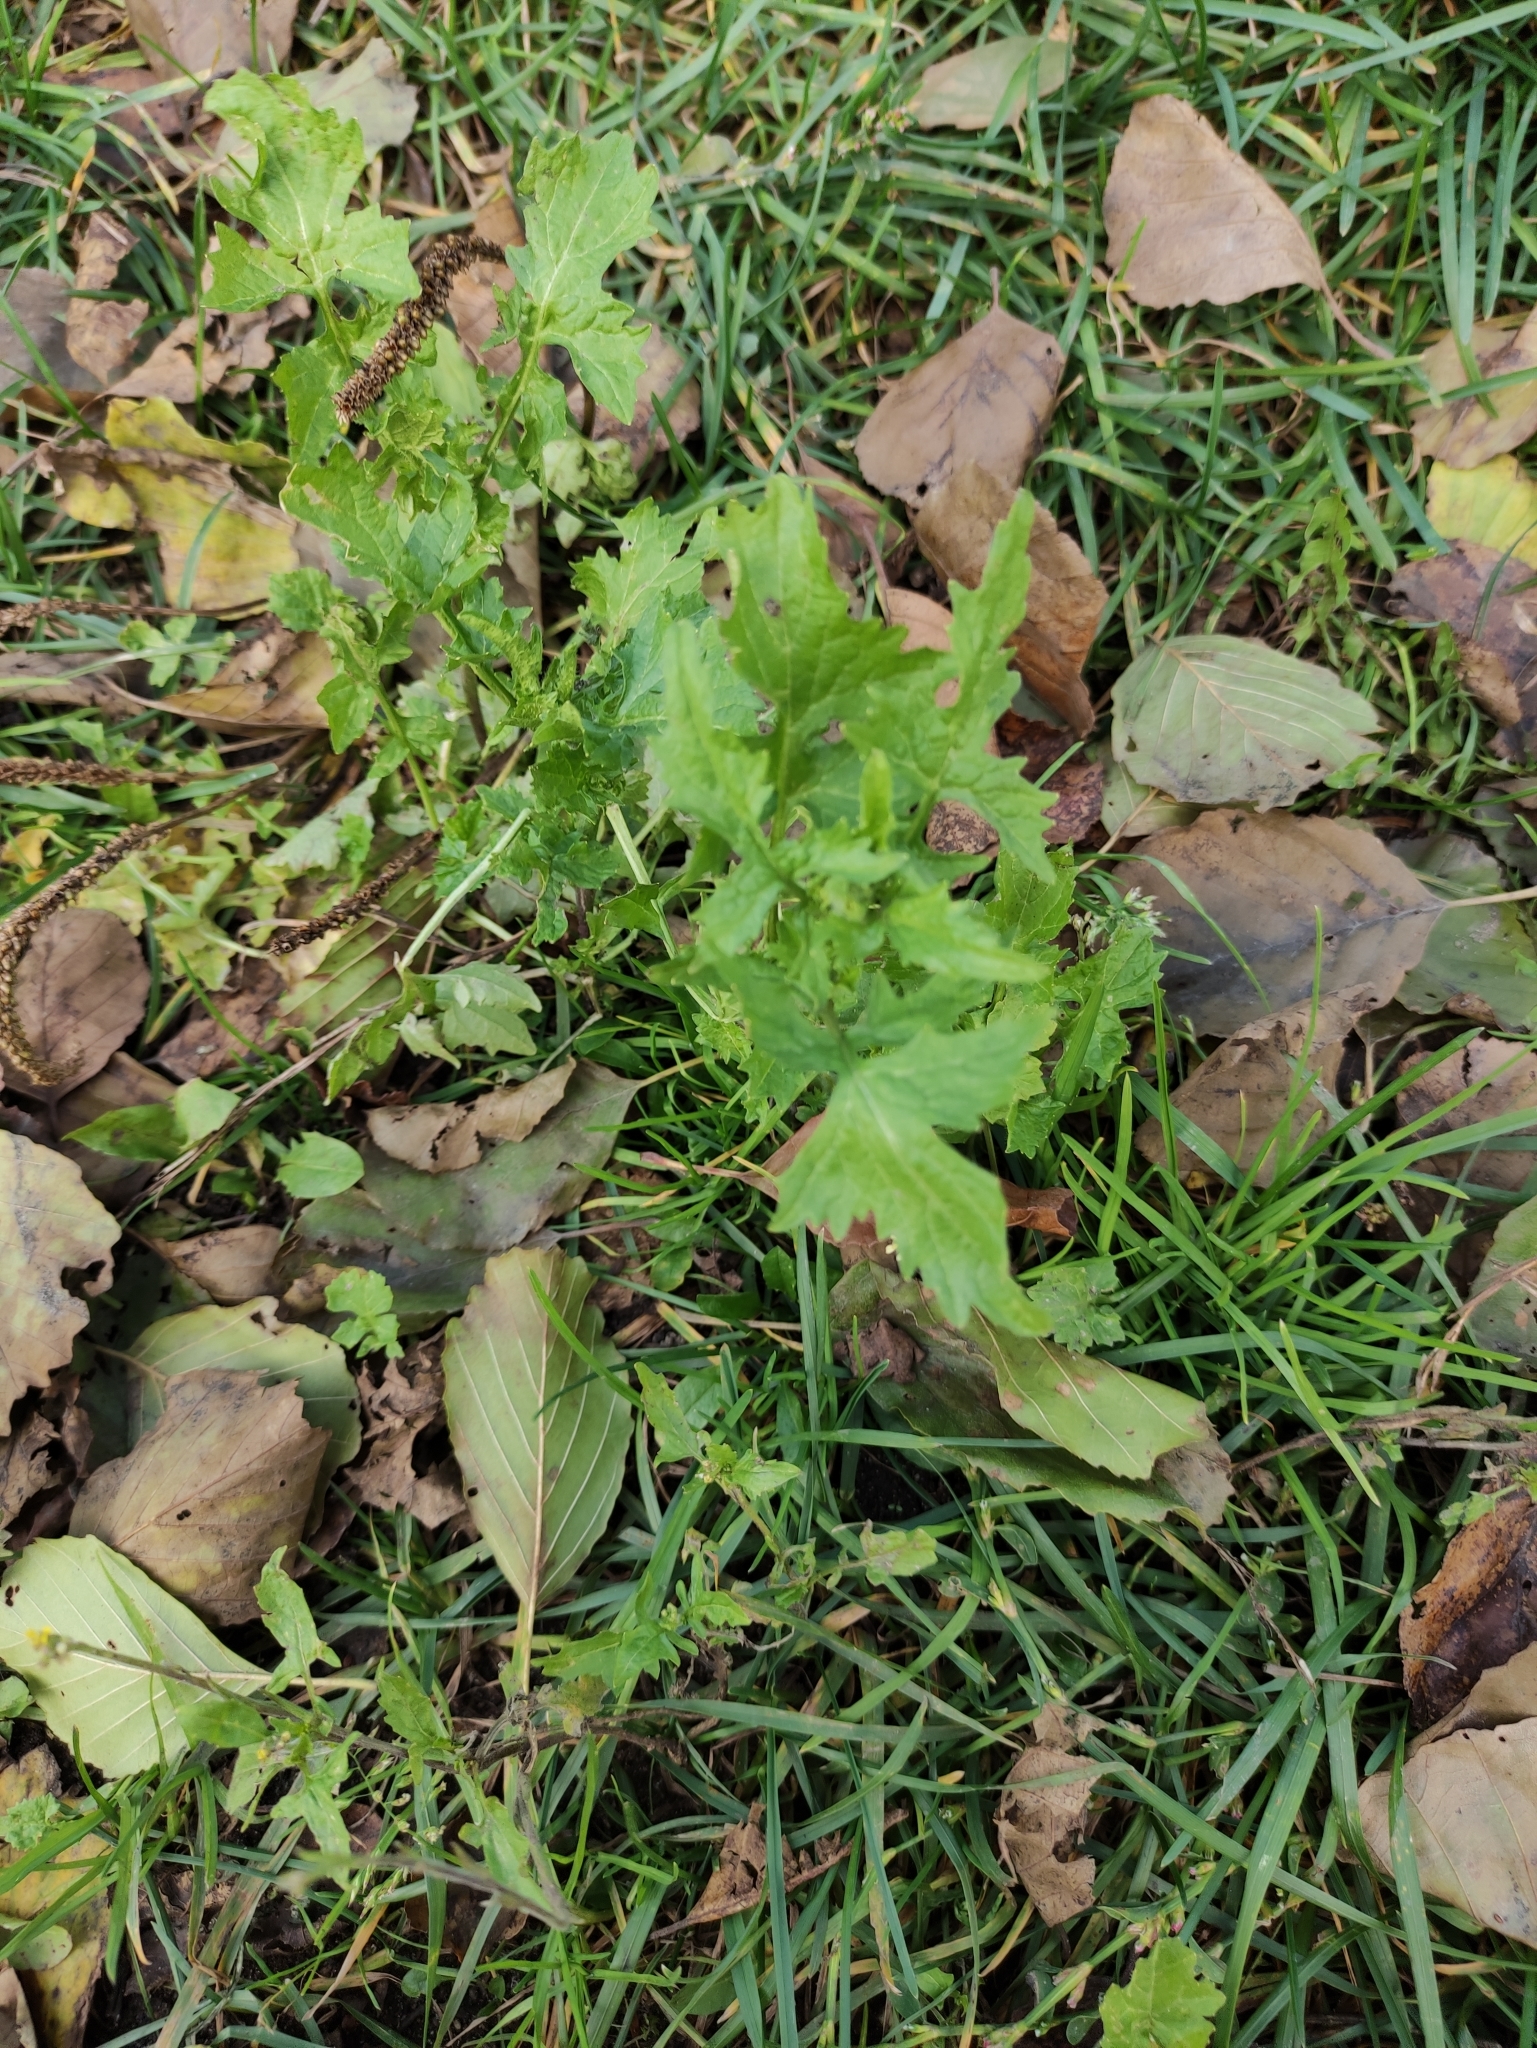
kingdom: Plantae
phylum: Tracheophyta
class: Magnoliopsida
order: Brassicales
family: Brassicaceae
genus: Sisymbrium
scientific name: Sisymbrium officinale
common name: Hedge mustard
